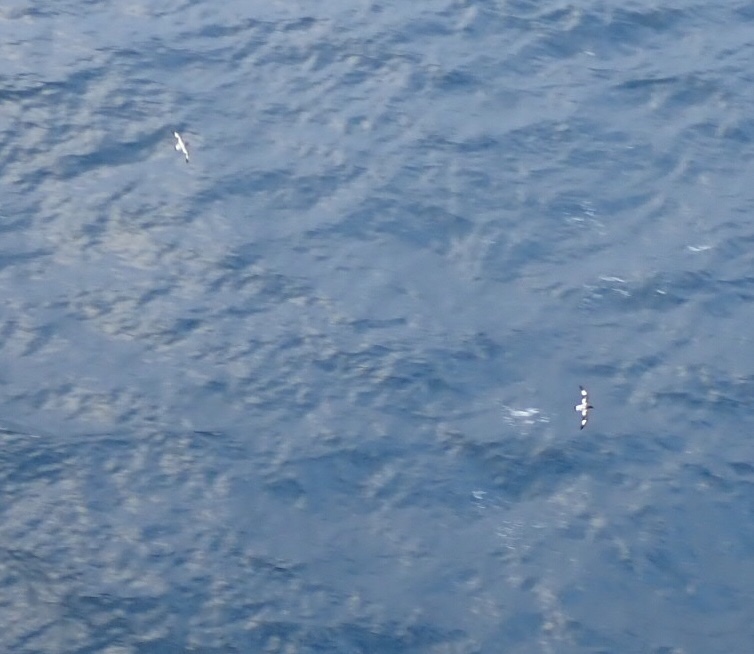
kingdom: Animalia
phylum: Chordata
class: Aves
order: Procellariiformes
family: Procellariidae
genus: Daption
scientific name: Daption capense
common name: Cape petrel
